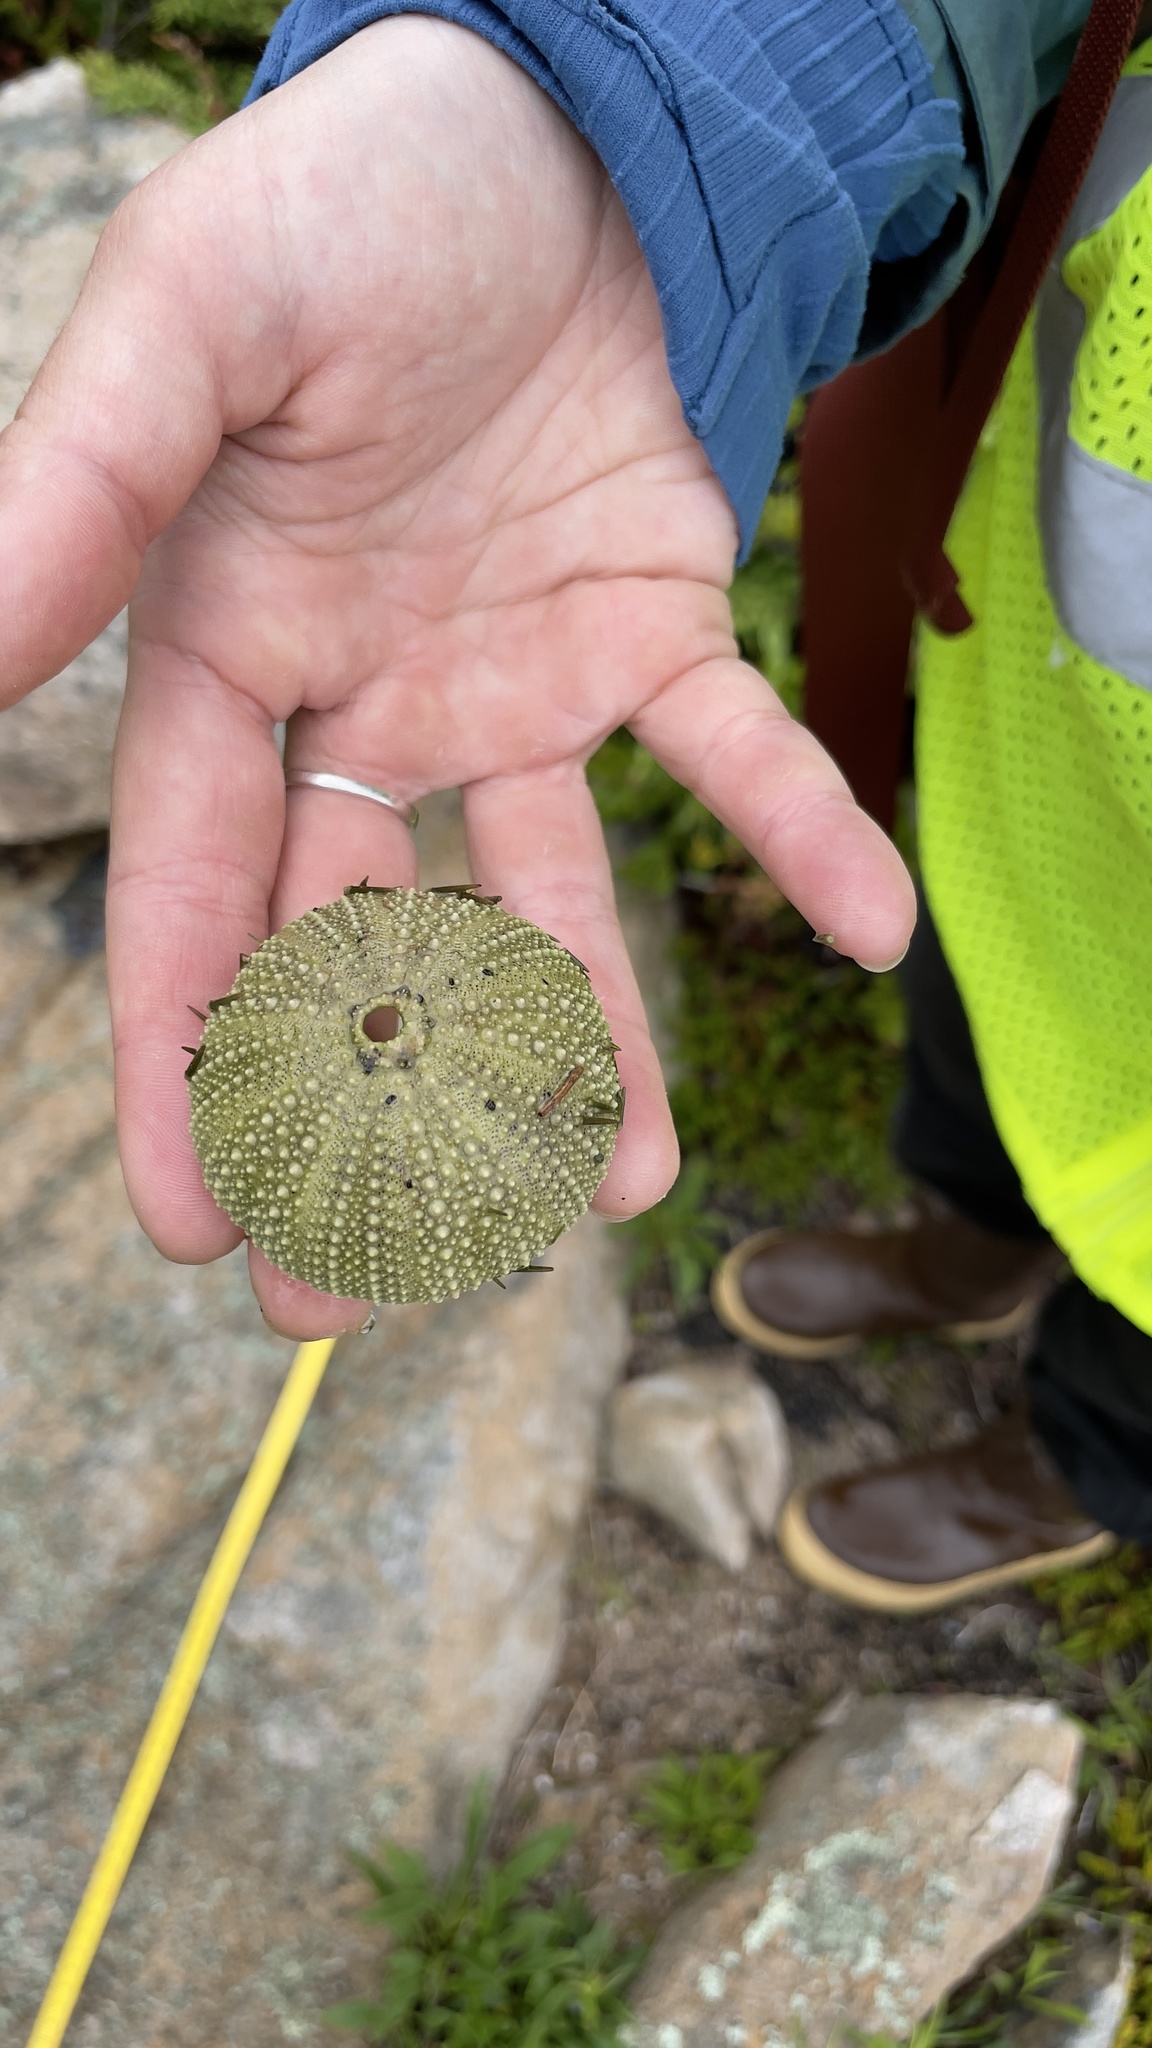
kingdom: Animalia
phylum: Echinodermata
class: Echinoidea
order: Camarodonta
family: Strongylocentrotidae
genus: Strongylocentrotus
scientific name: Strongylocentrotus droebachiensis
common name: Northern sea urchin
